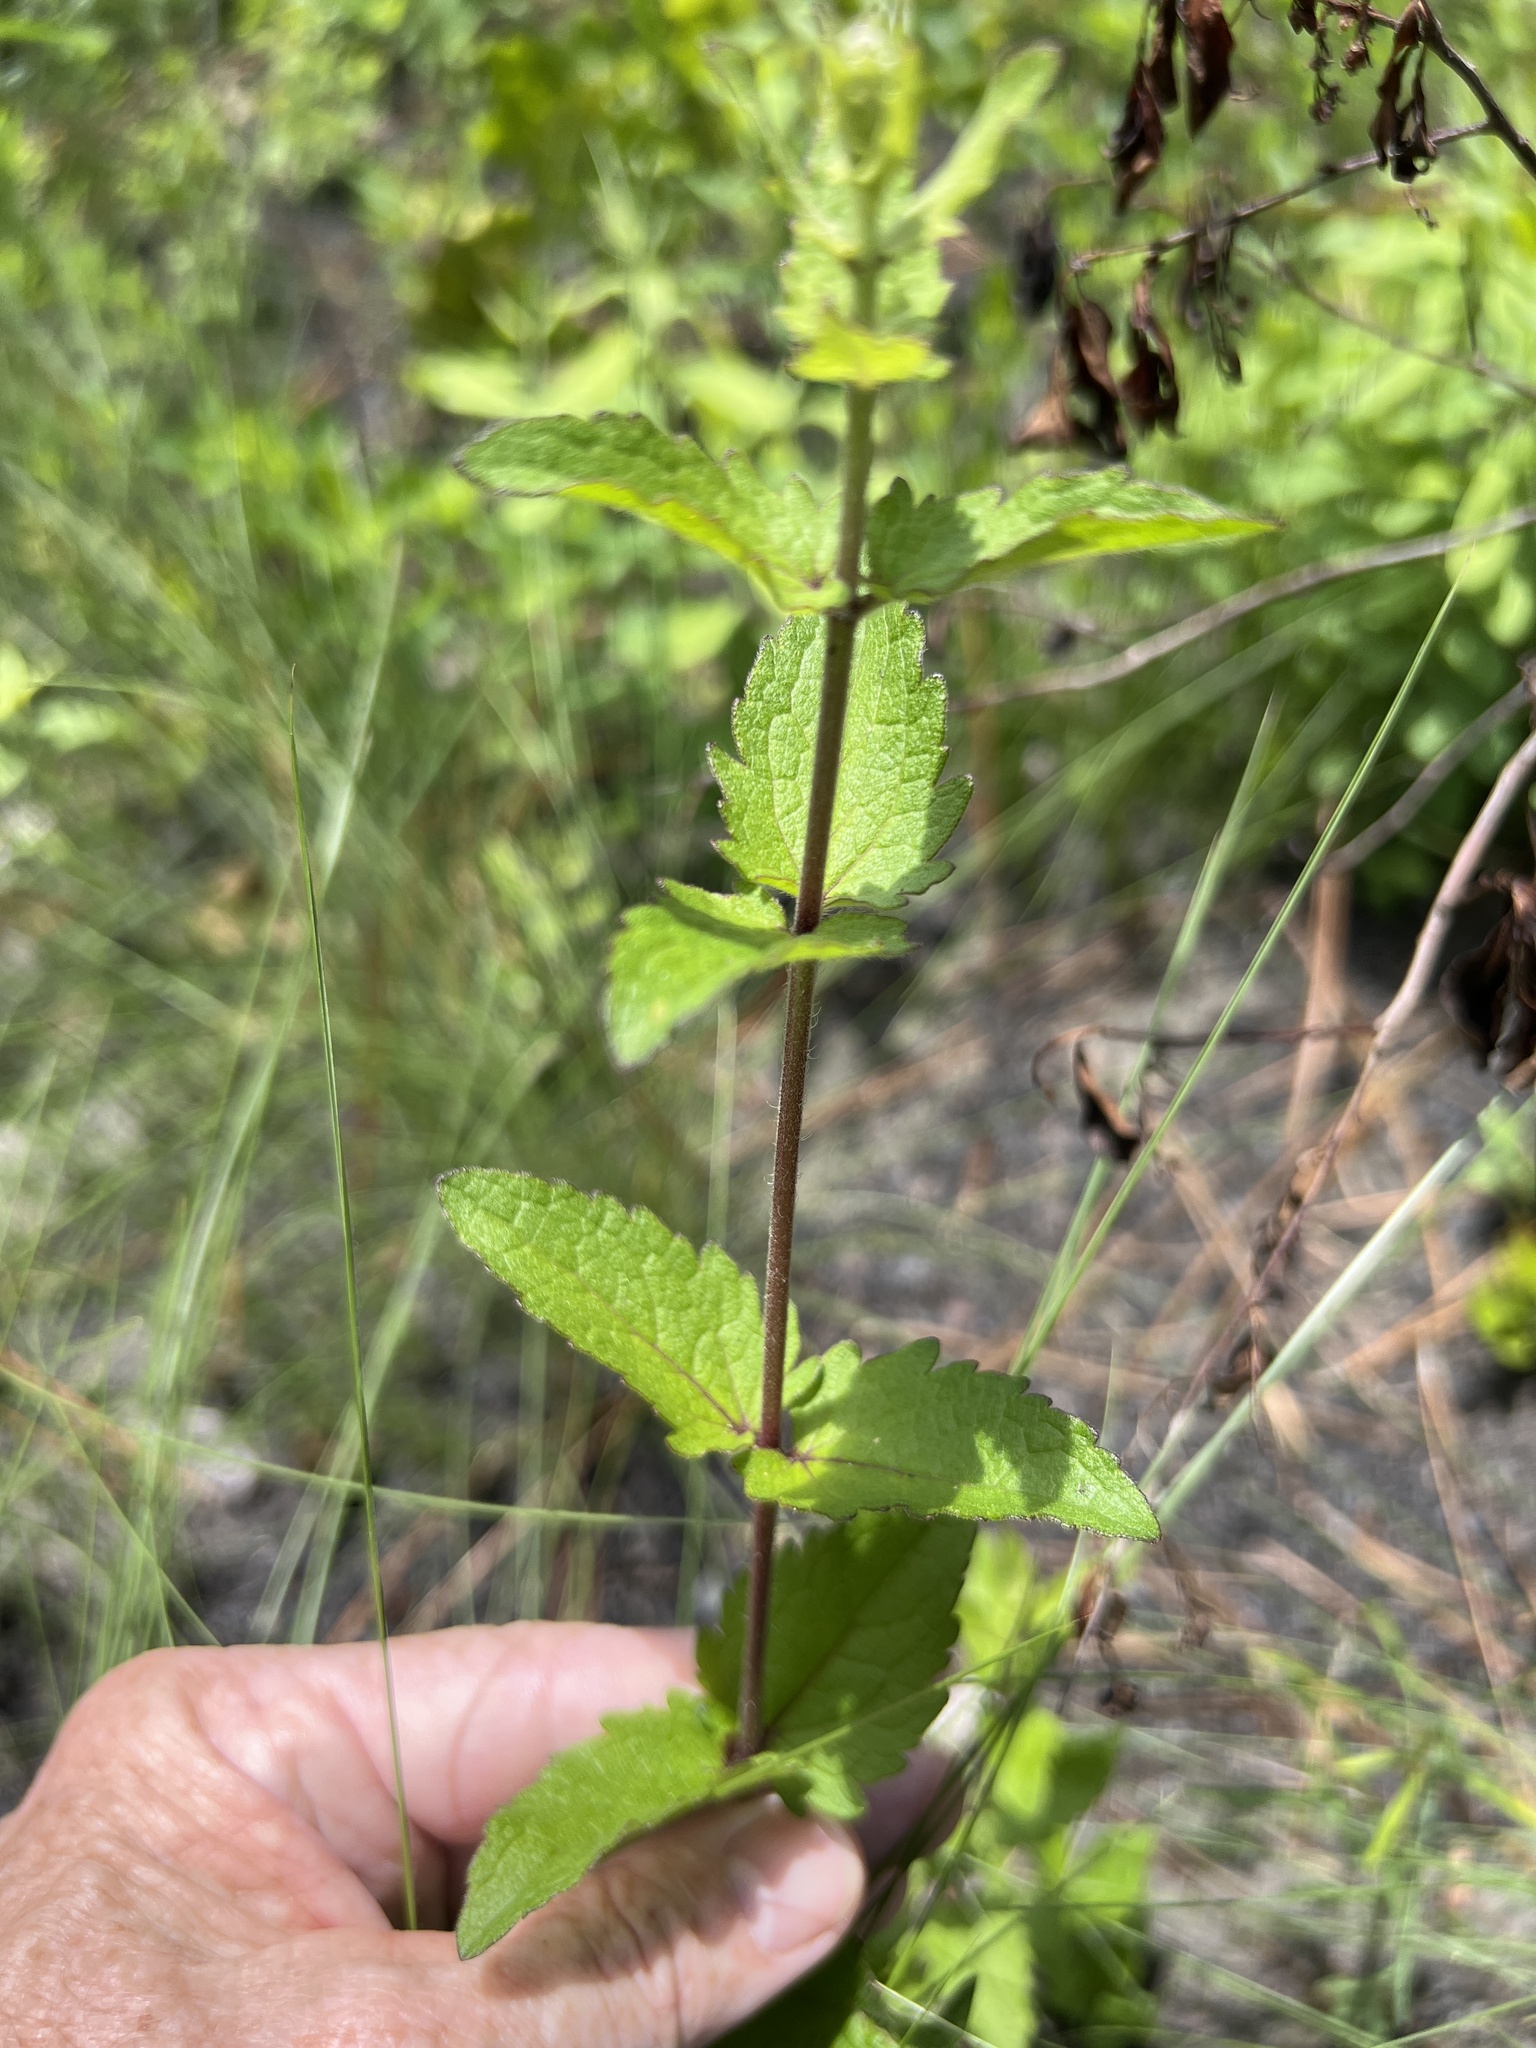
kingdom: Plantae
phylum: Tracheophyta
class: Magnoliopsida
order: Asterales
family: Asteraceae
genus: Eupatorium
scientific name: Eupatorium pilosum
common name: Rough boneset
